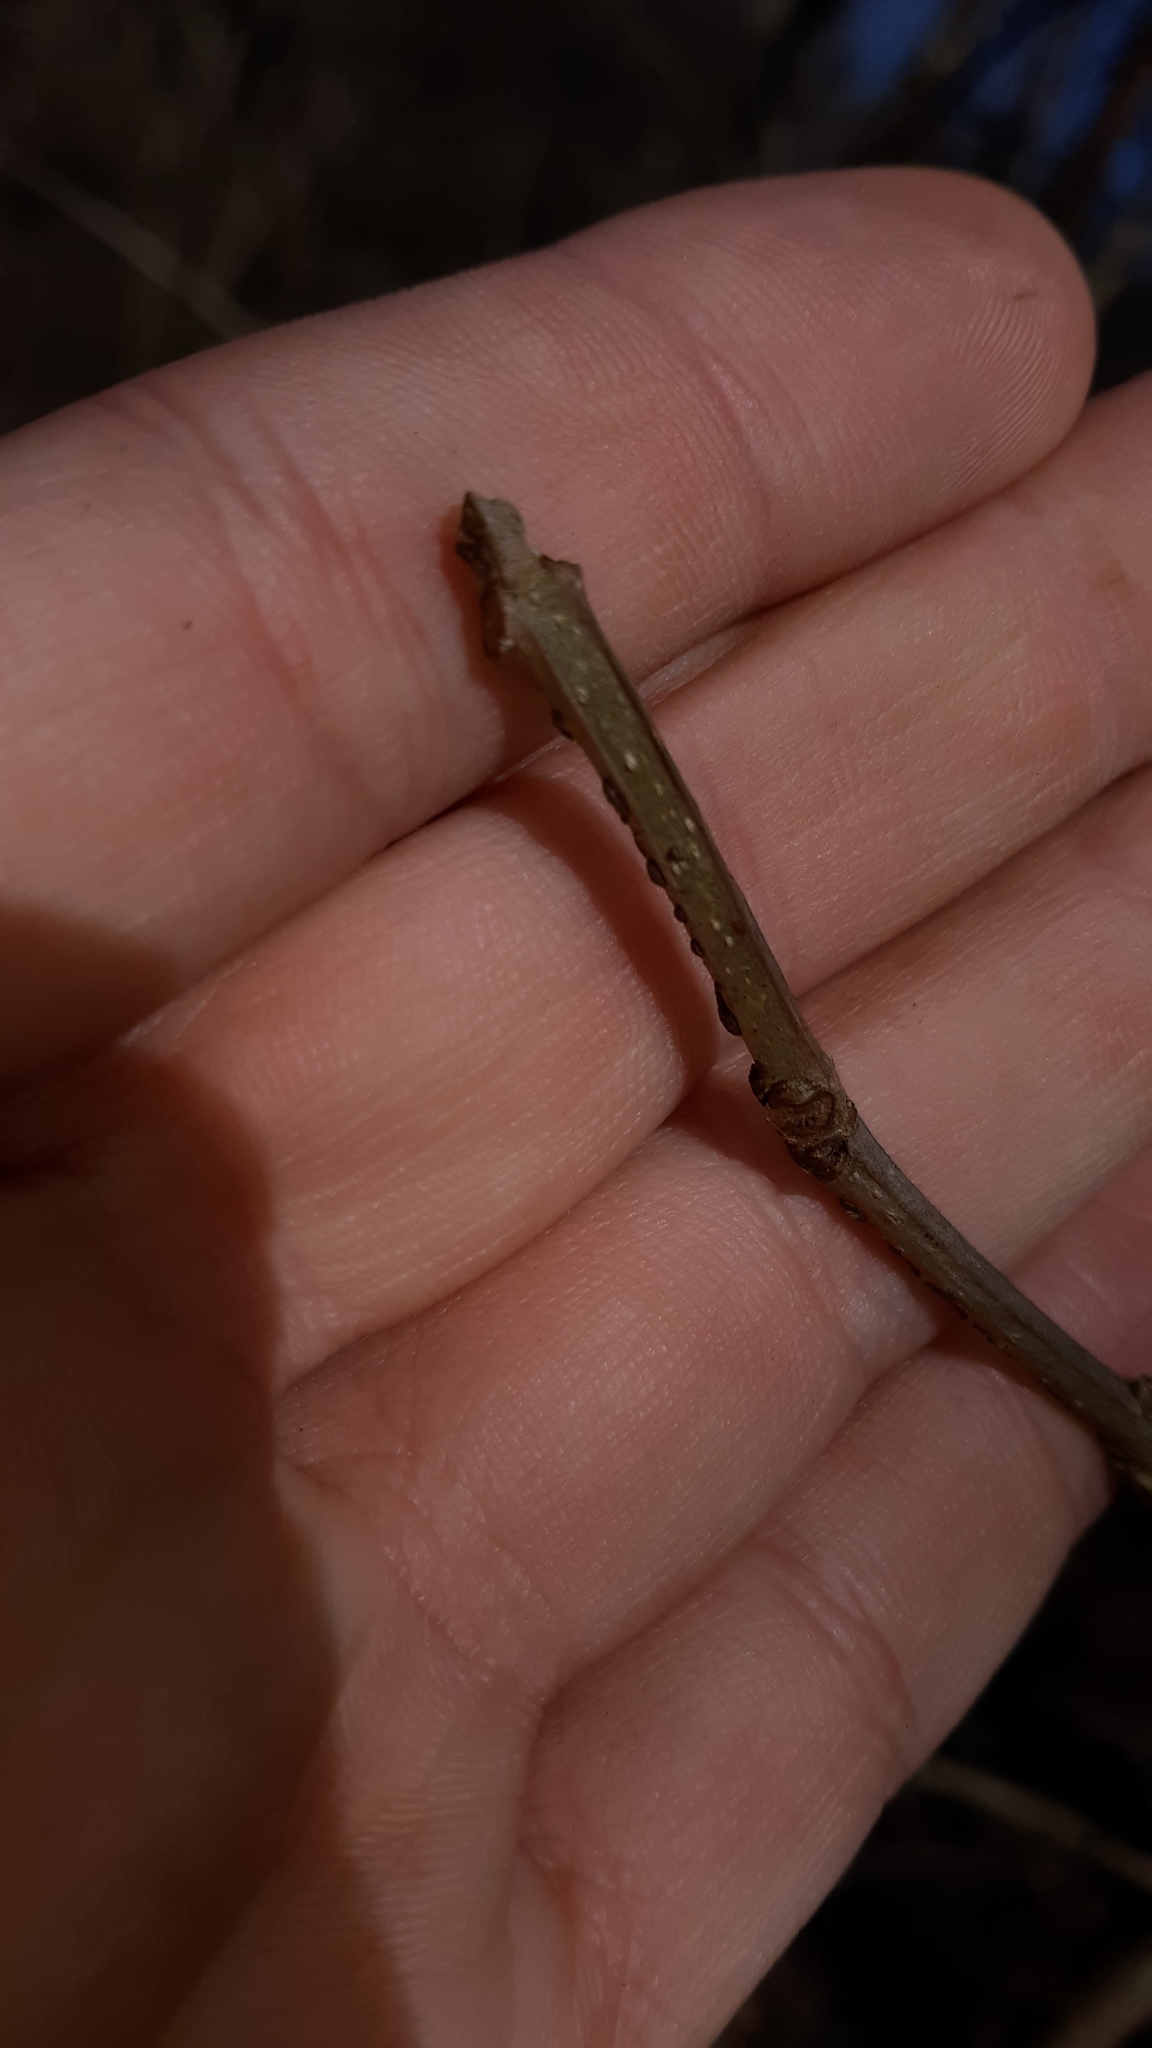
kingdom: Plantae
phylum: Tracheophyta
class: Magnoliopsida
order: Lamiales
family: Oleaceae
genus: Fraxinus
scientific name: Fraxinus quadrangulata
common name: Blue ash
